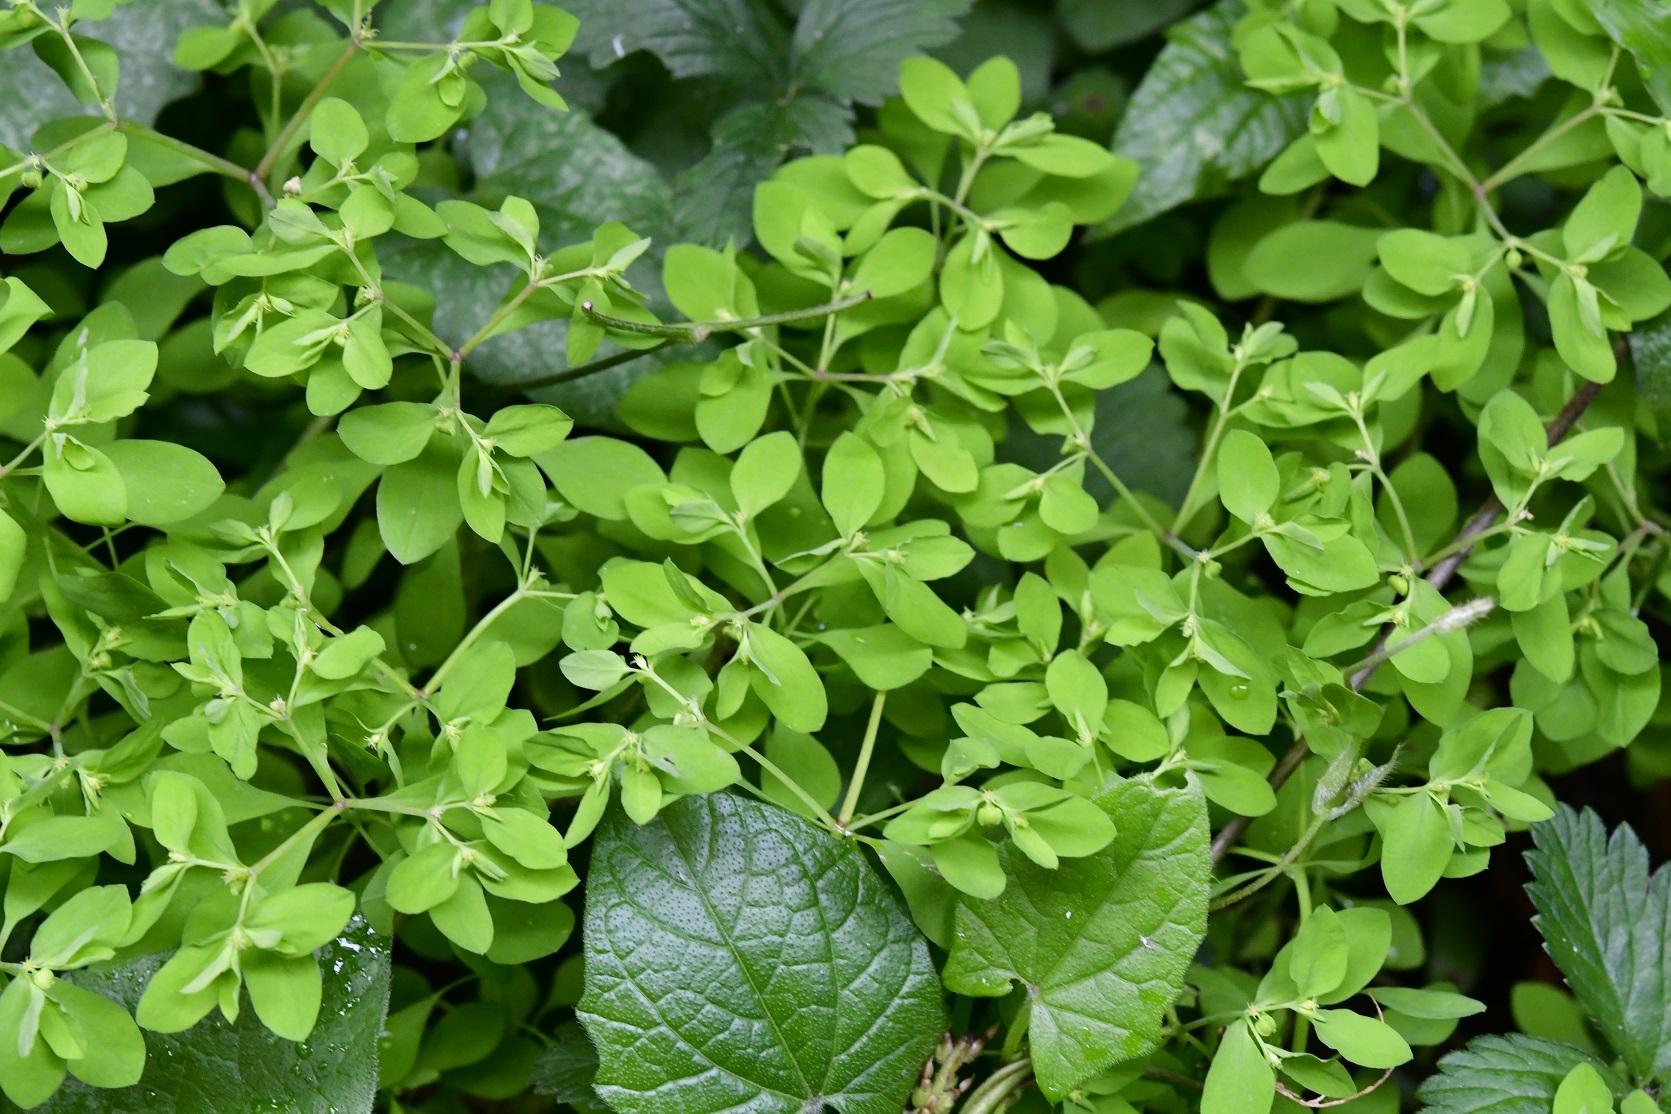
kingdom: Plantae
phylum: Tracheophyta
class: Magnoliopsida
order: Malpighiales
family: Euphorbiaceae
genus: Euphorbia
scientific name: Euphorbia peplus
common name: Petty spurge
